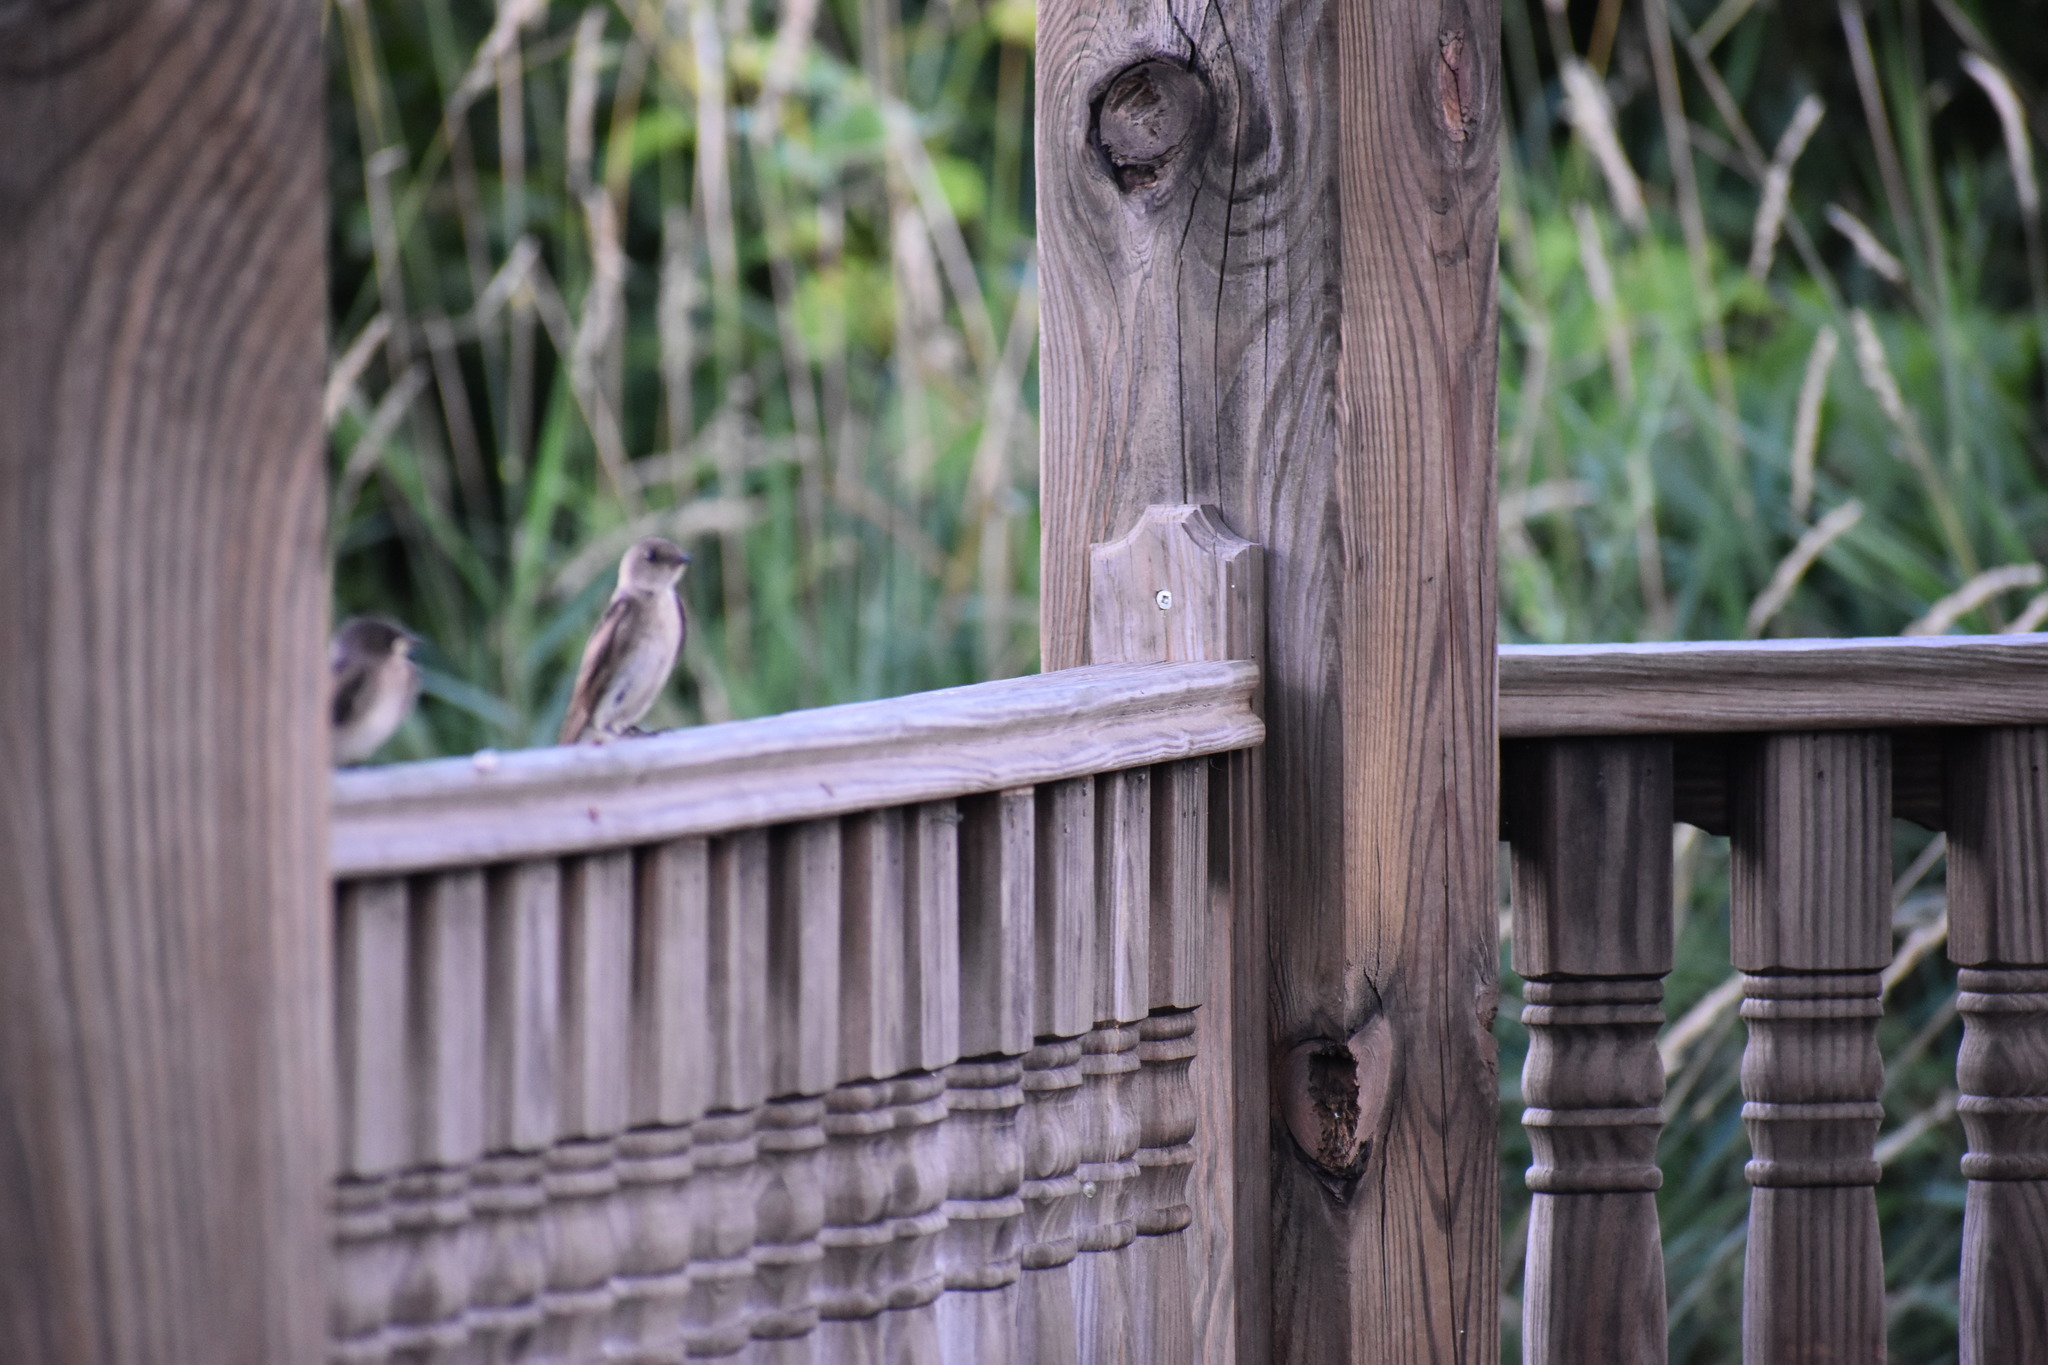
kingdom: Animalia
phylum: Chordata
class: Aves
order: Passeriformes
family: Hirundinidae
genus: Stelgidopteryx
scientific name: Stelgidopteryx serripennis
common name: Northern rough-winged swallow
